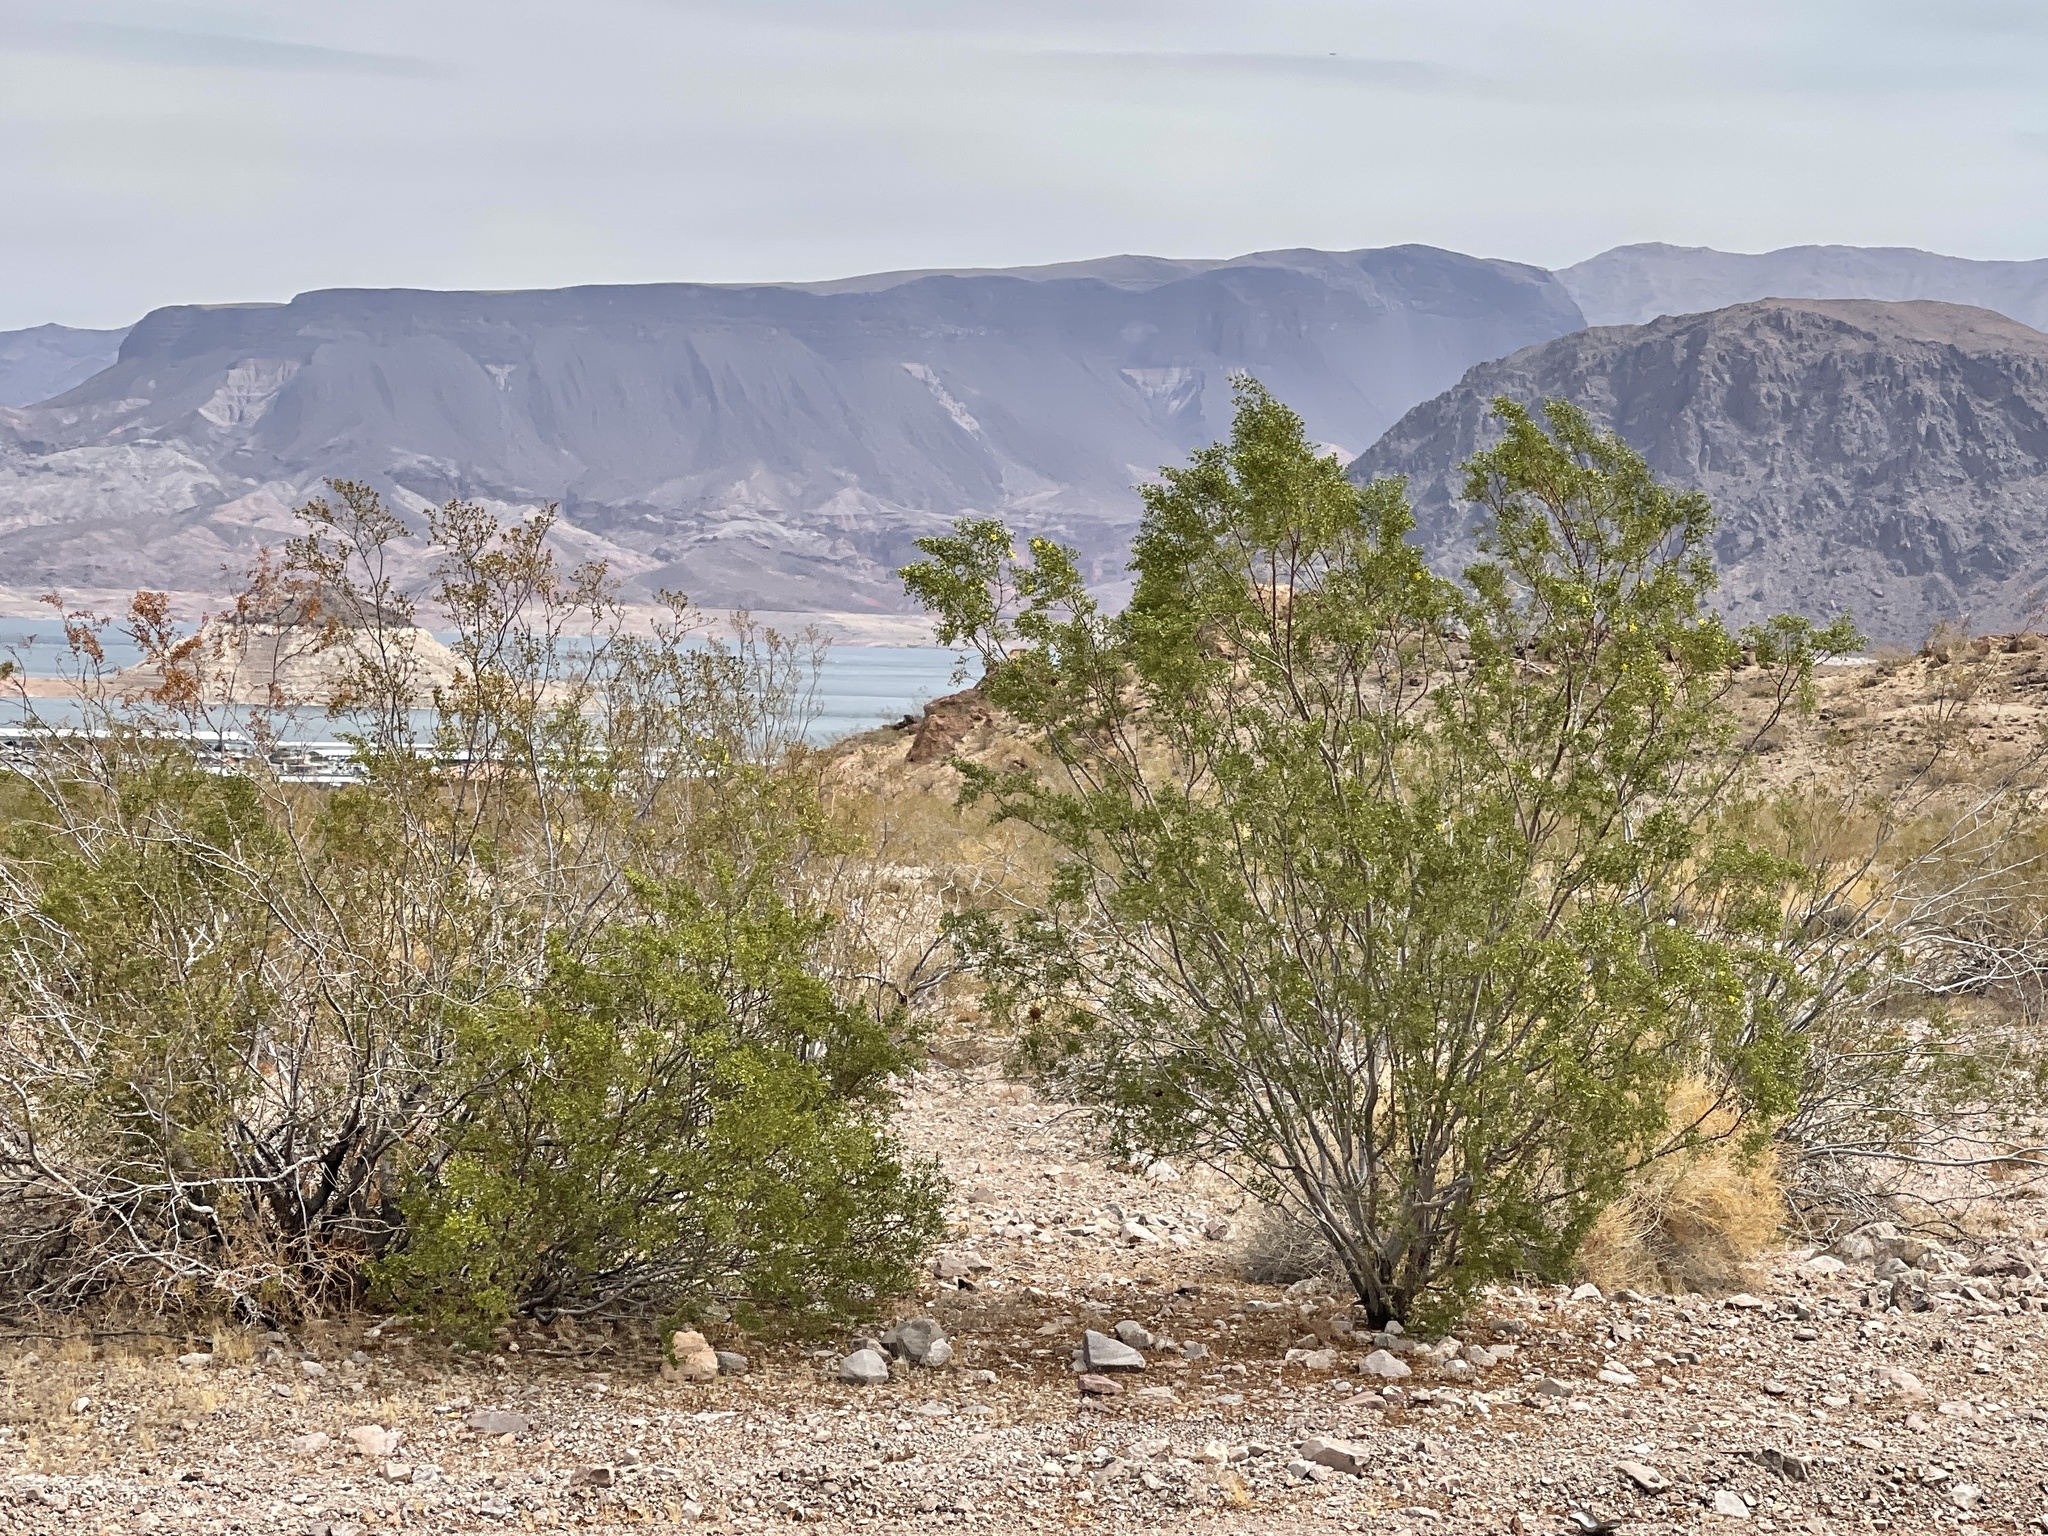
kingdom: Plantae
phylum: Tracheophyta
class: Magnoliopsida
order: Zygophyllales
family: Zygophyllaceae
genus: Larrea
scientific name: Larrea tridentata
